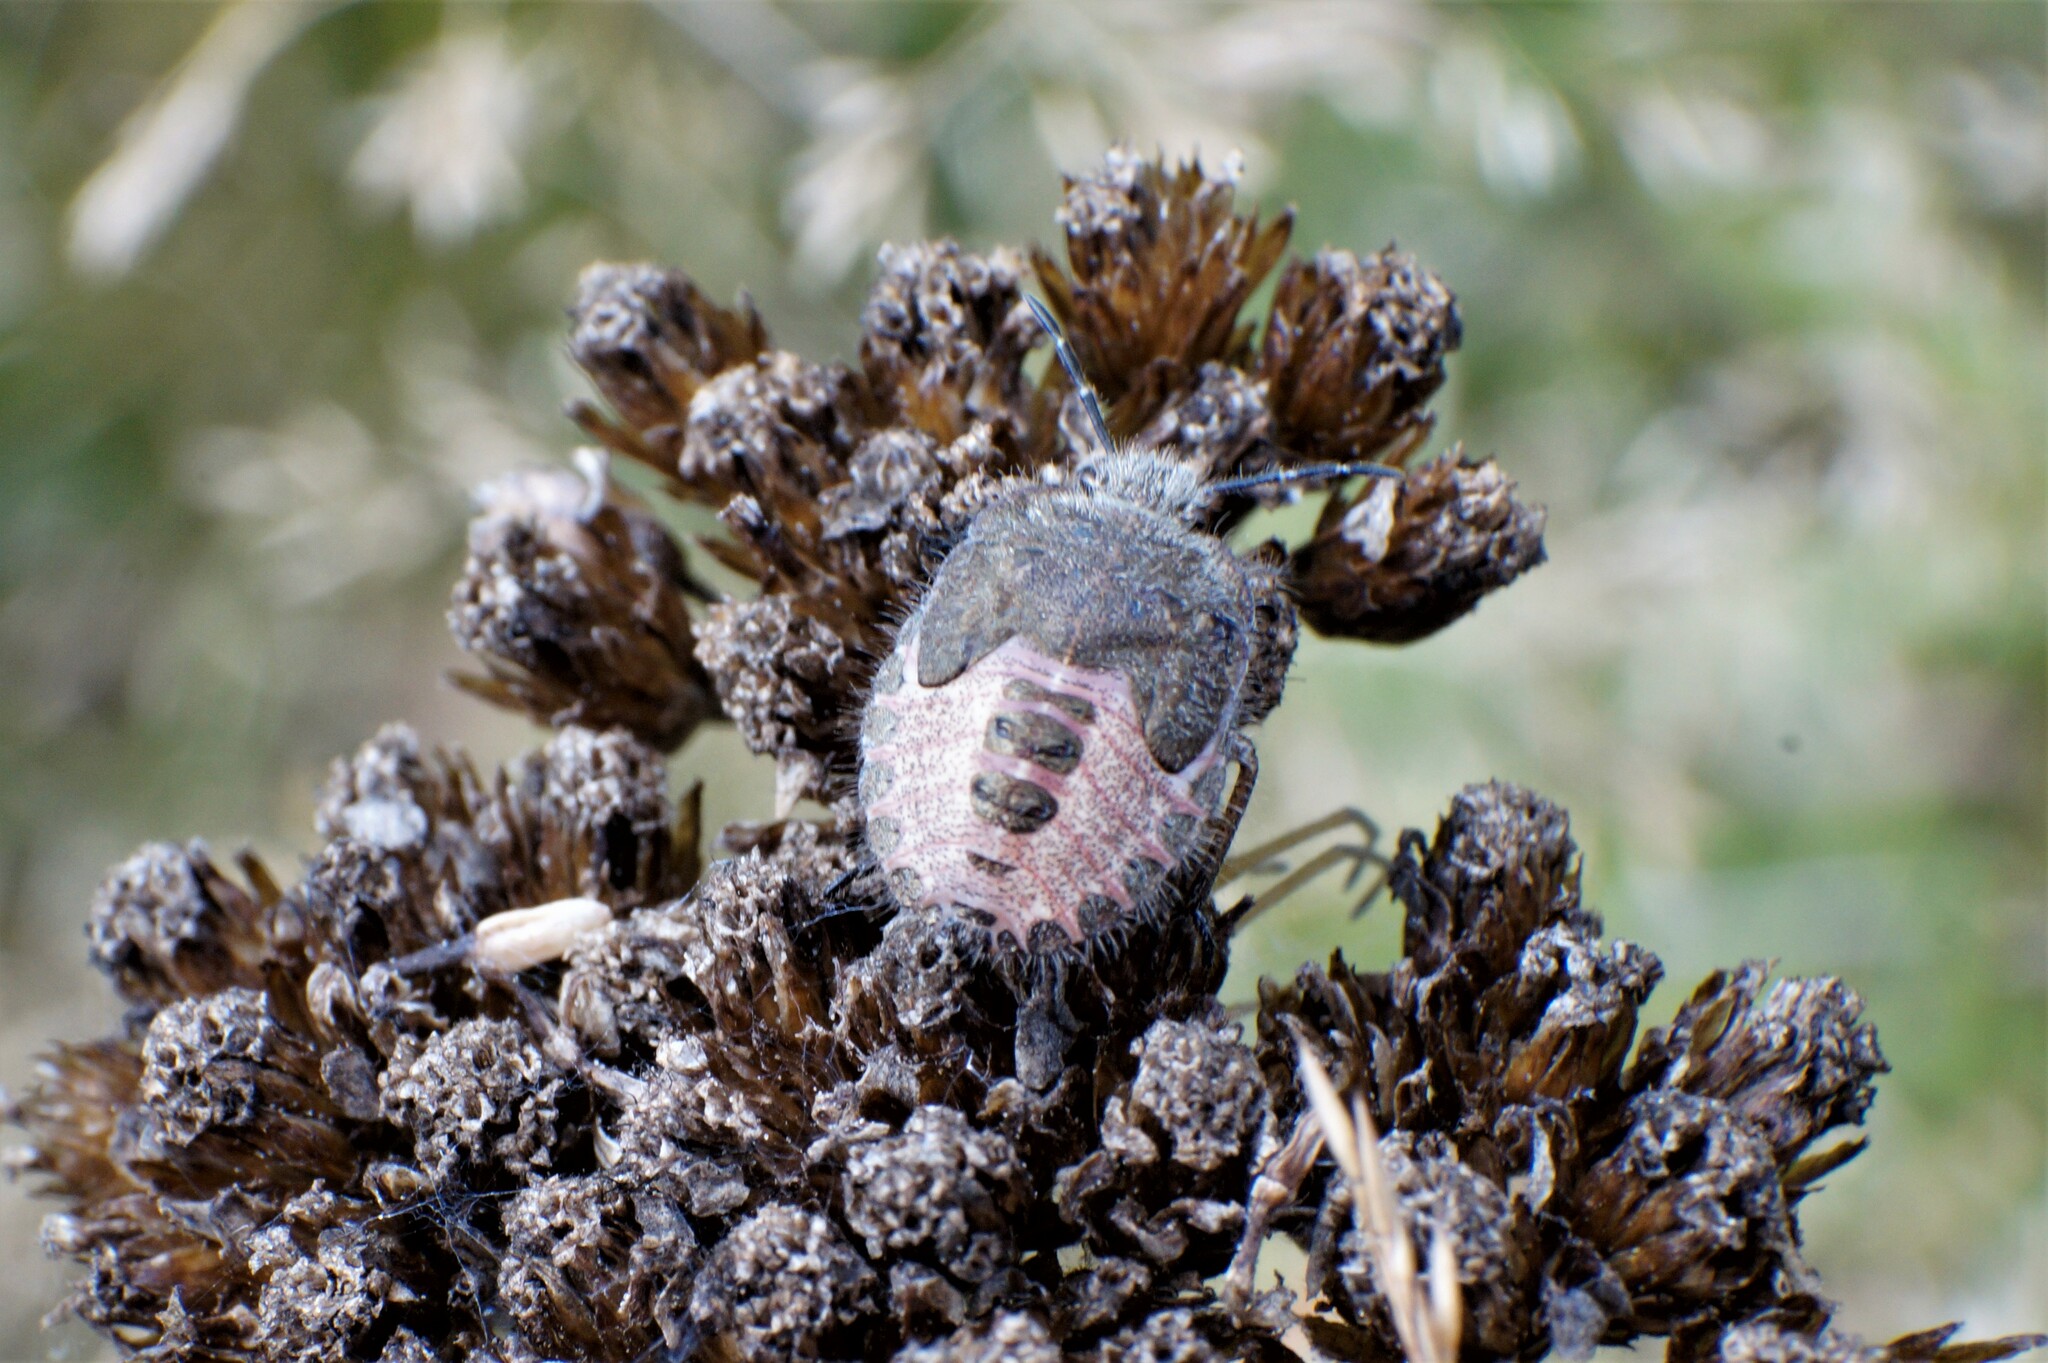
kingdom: Animalia
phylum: Arthropoda
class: Insecta
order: Hemiptera
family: Pentatomidae
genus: Dolycoris
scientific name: Dolycoris baccarum
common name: Sloe bug
